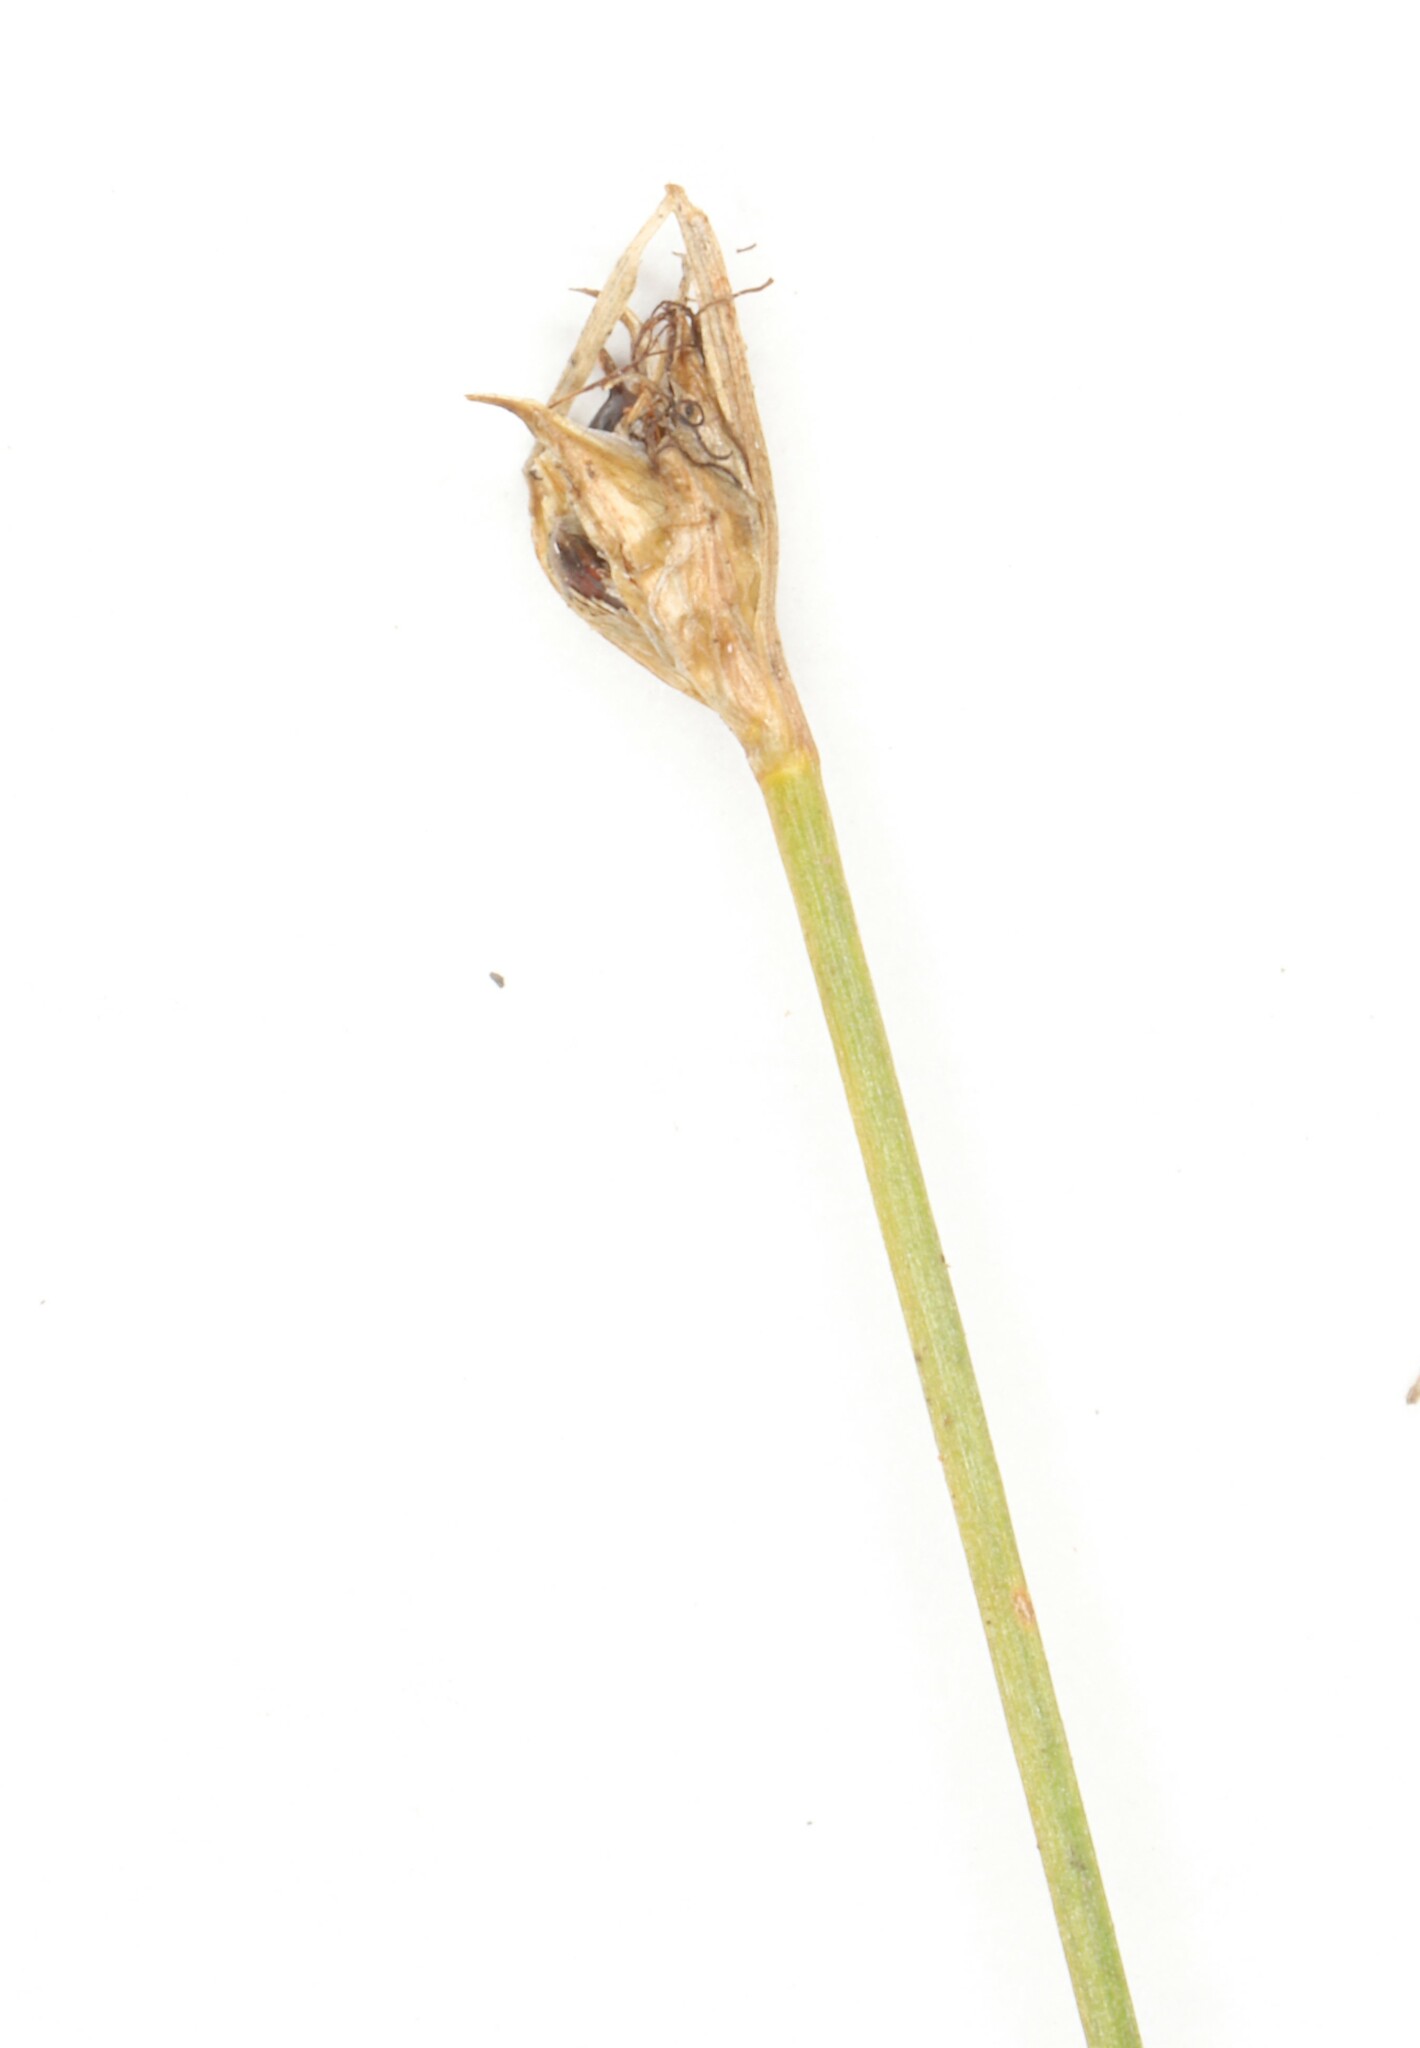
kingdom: Plantae
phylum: Tracheophyta
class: Liliopsida
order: Poales
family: Cyperaceae
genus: Schoenoplectus
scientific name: Schoenoplectus subterminalis
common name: Swaying bulrush
